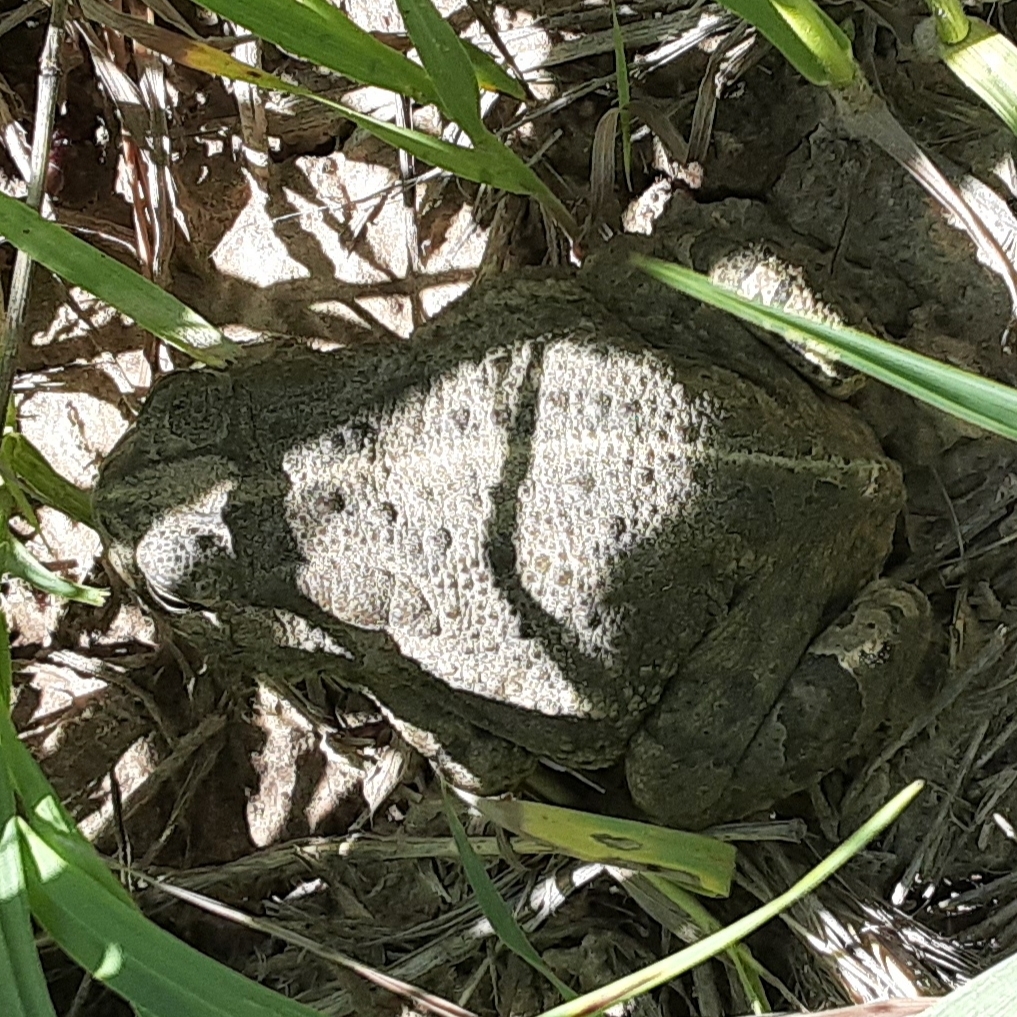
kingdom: Animalia
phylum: Chordata
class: Amphibia
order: Anura
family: Bufonidae
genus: Anaxyrus
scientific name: Anaxyrus woodhousii
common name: Woodhouse's toad
